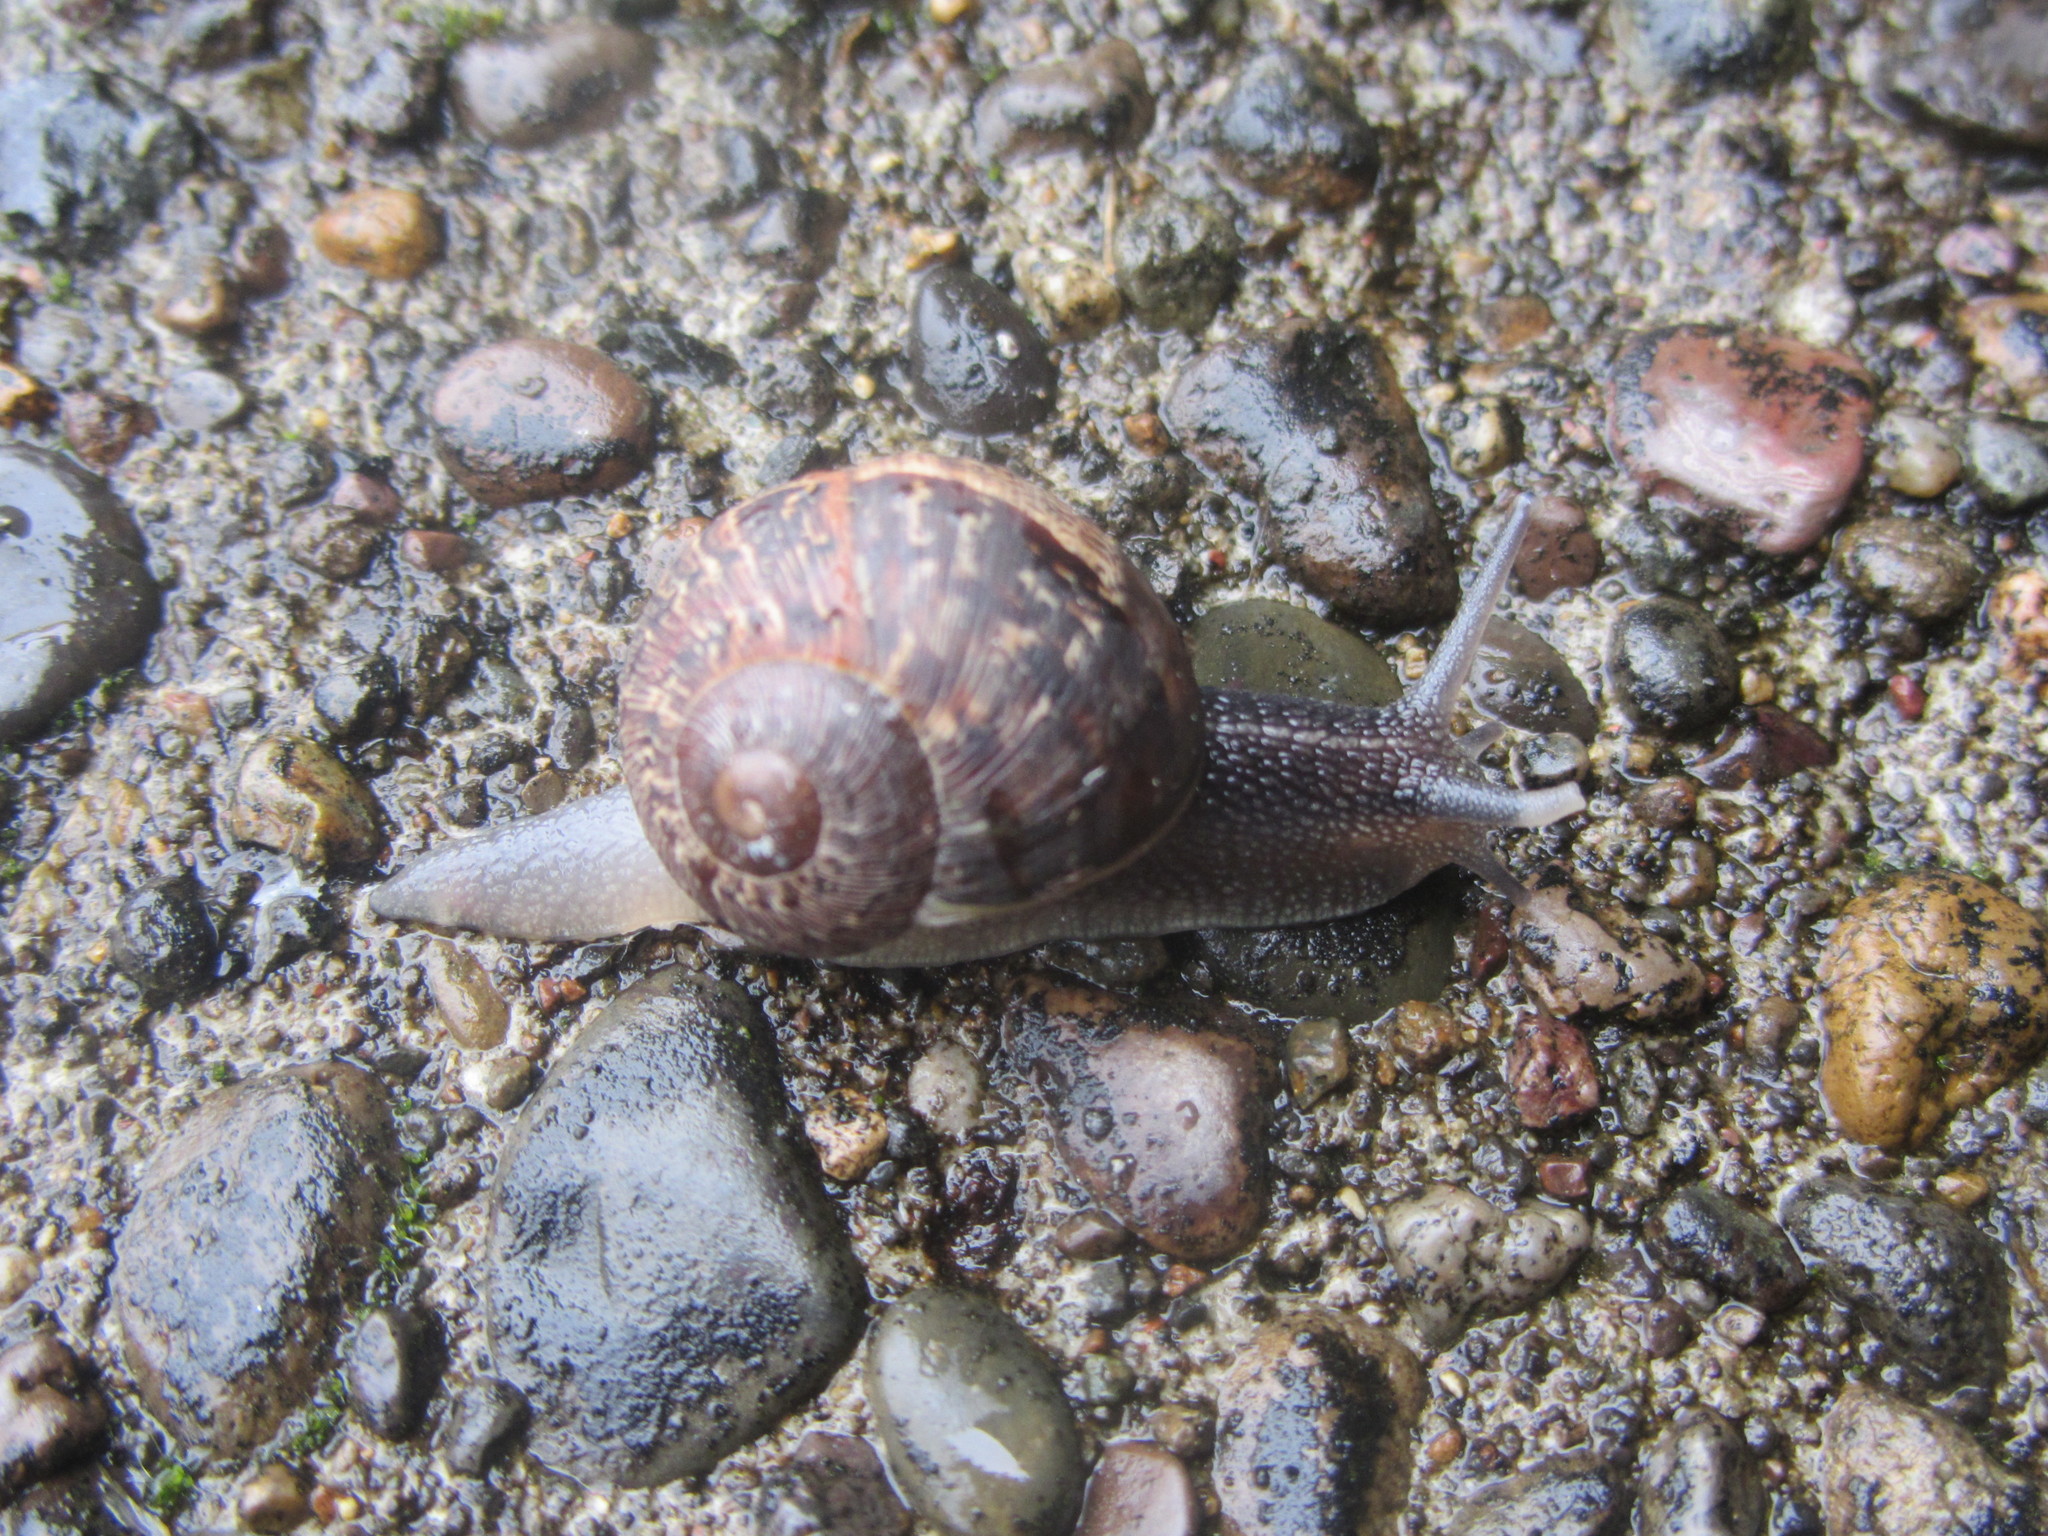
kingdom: Animalia
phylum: Mollusca
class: Gastropoda
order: Stylommatophora
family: Helicidae
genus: Cornu
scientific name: Cornu aspersum
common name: Brown garden snail
